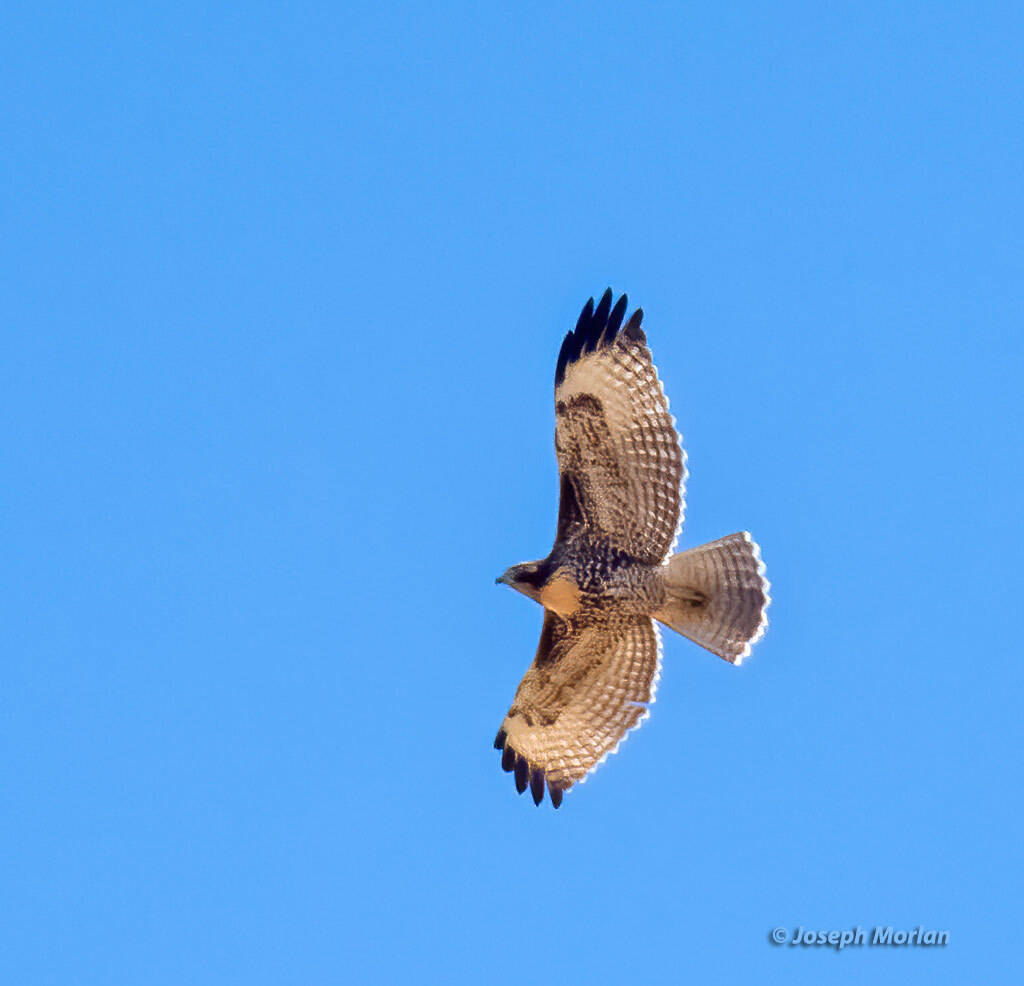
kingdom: Animalia
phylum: Chordata
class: Aves
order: Accipitriformes
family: Accipitridae
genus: Buteo
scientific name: Buteo jamaicensis
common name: Red-tailed hawk
